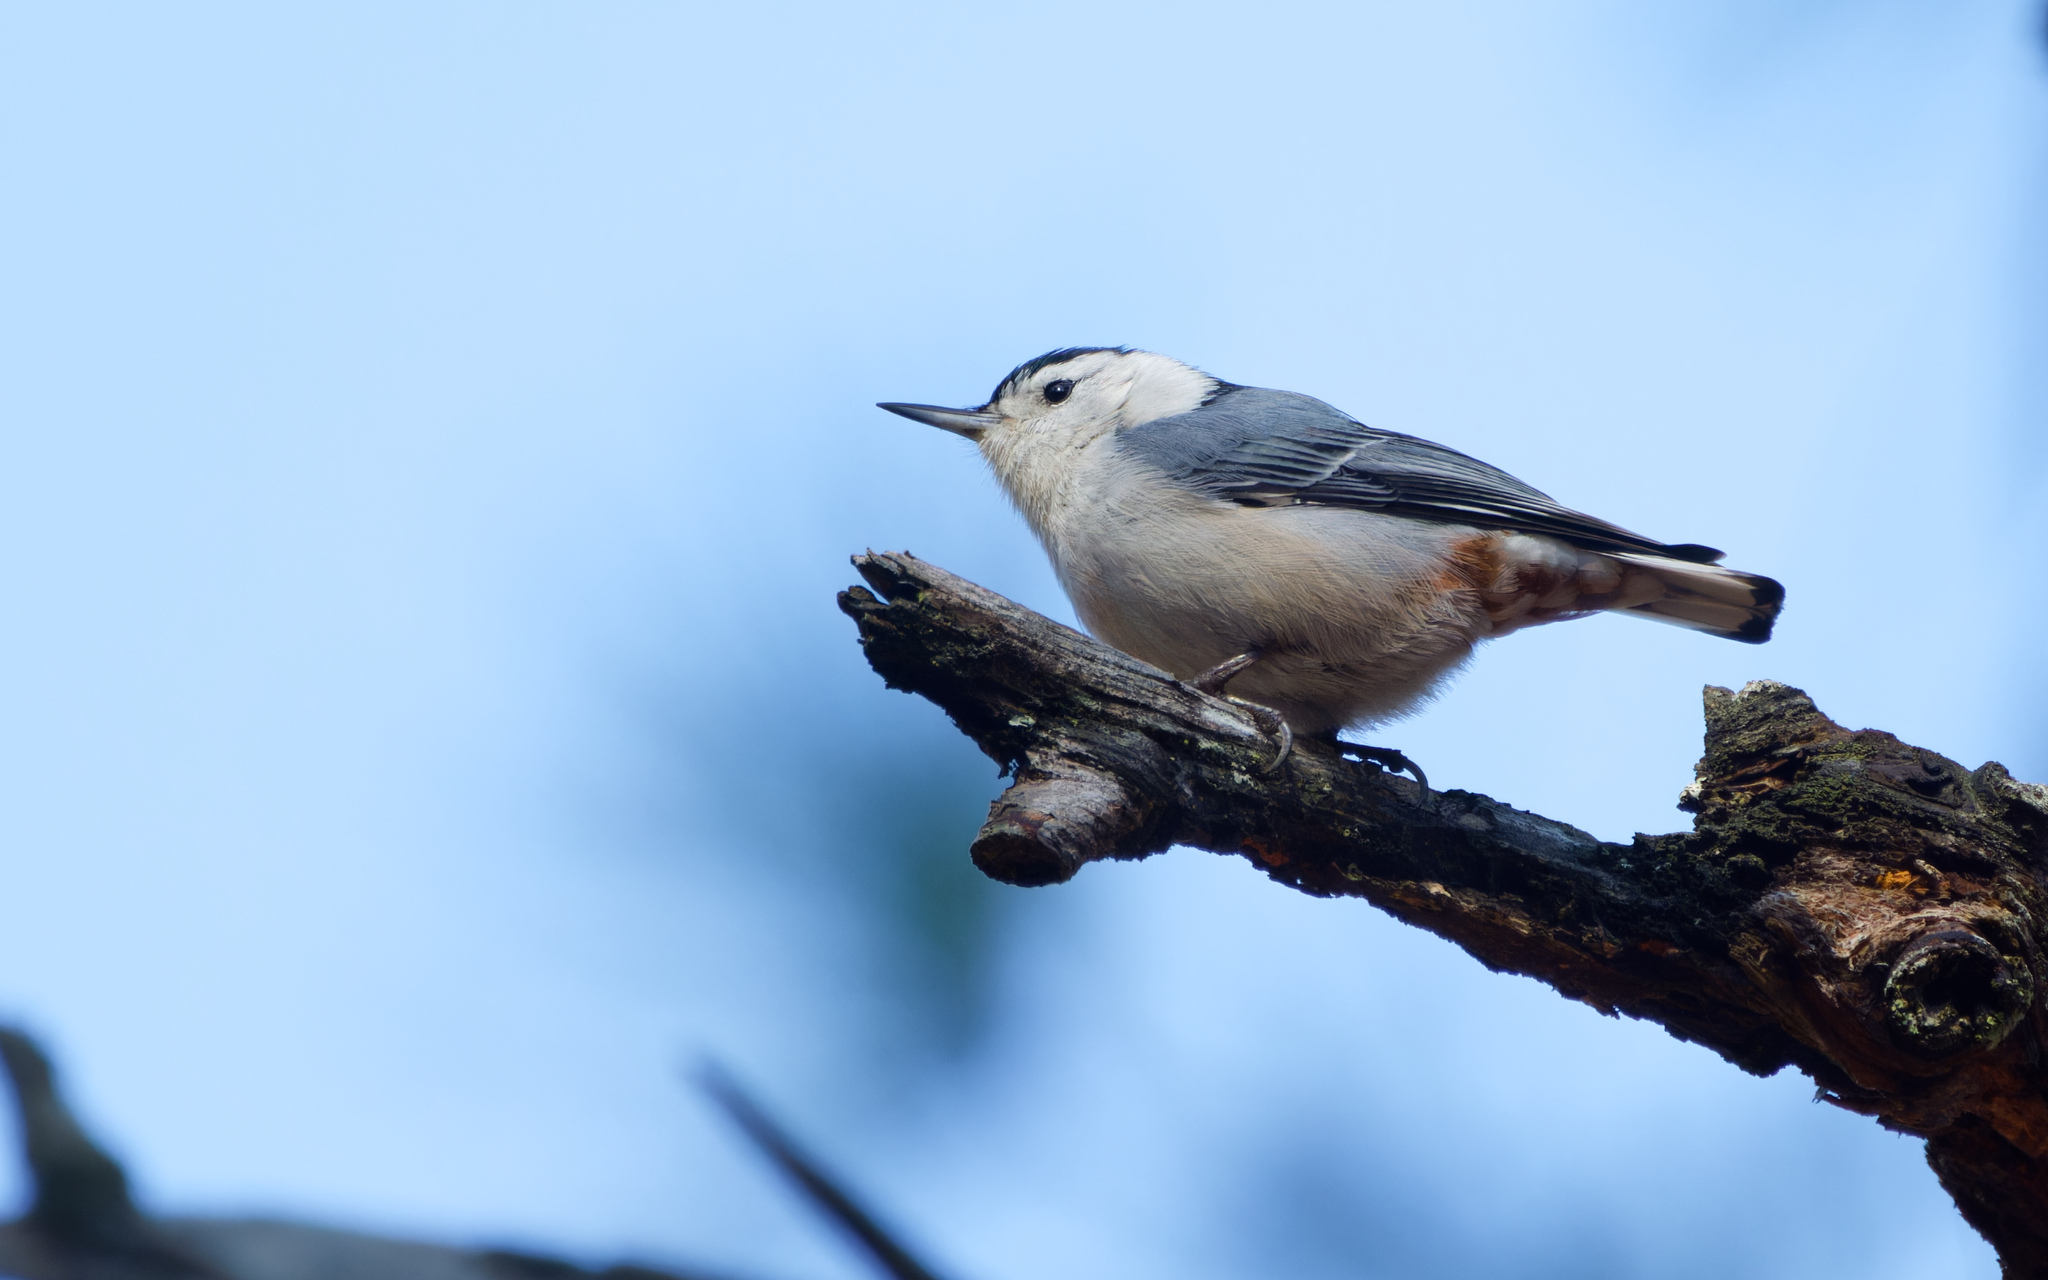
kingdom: Animalia
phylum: Chordata
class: Aves
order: Passeriformes
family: Sittidae
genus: Sitta
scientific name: Sitta carolinensis
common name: White-breasted nuthatch
